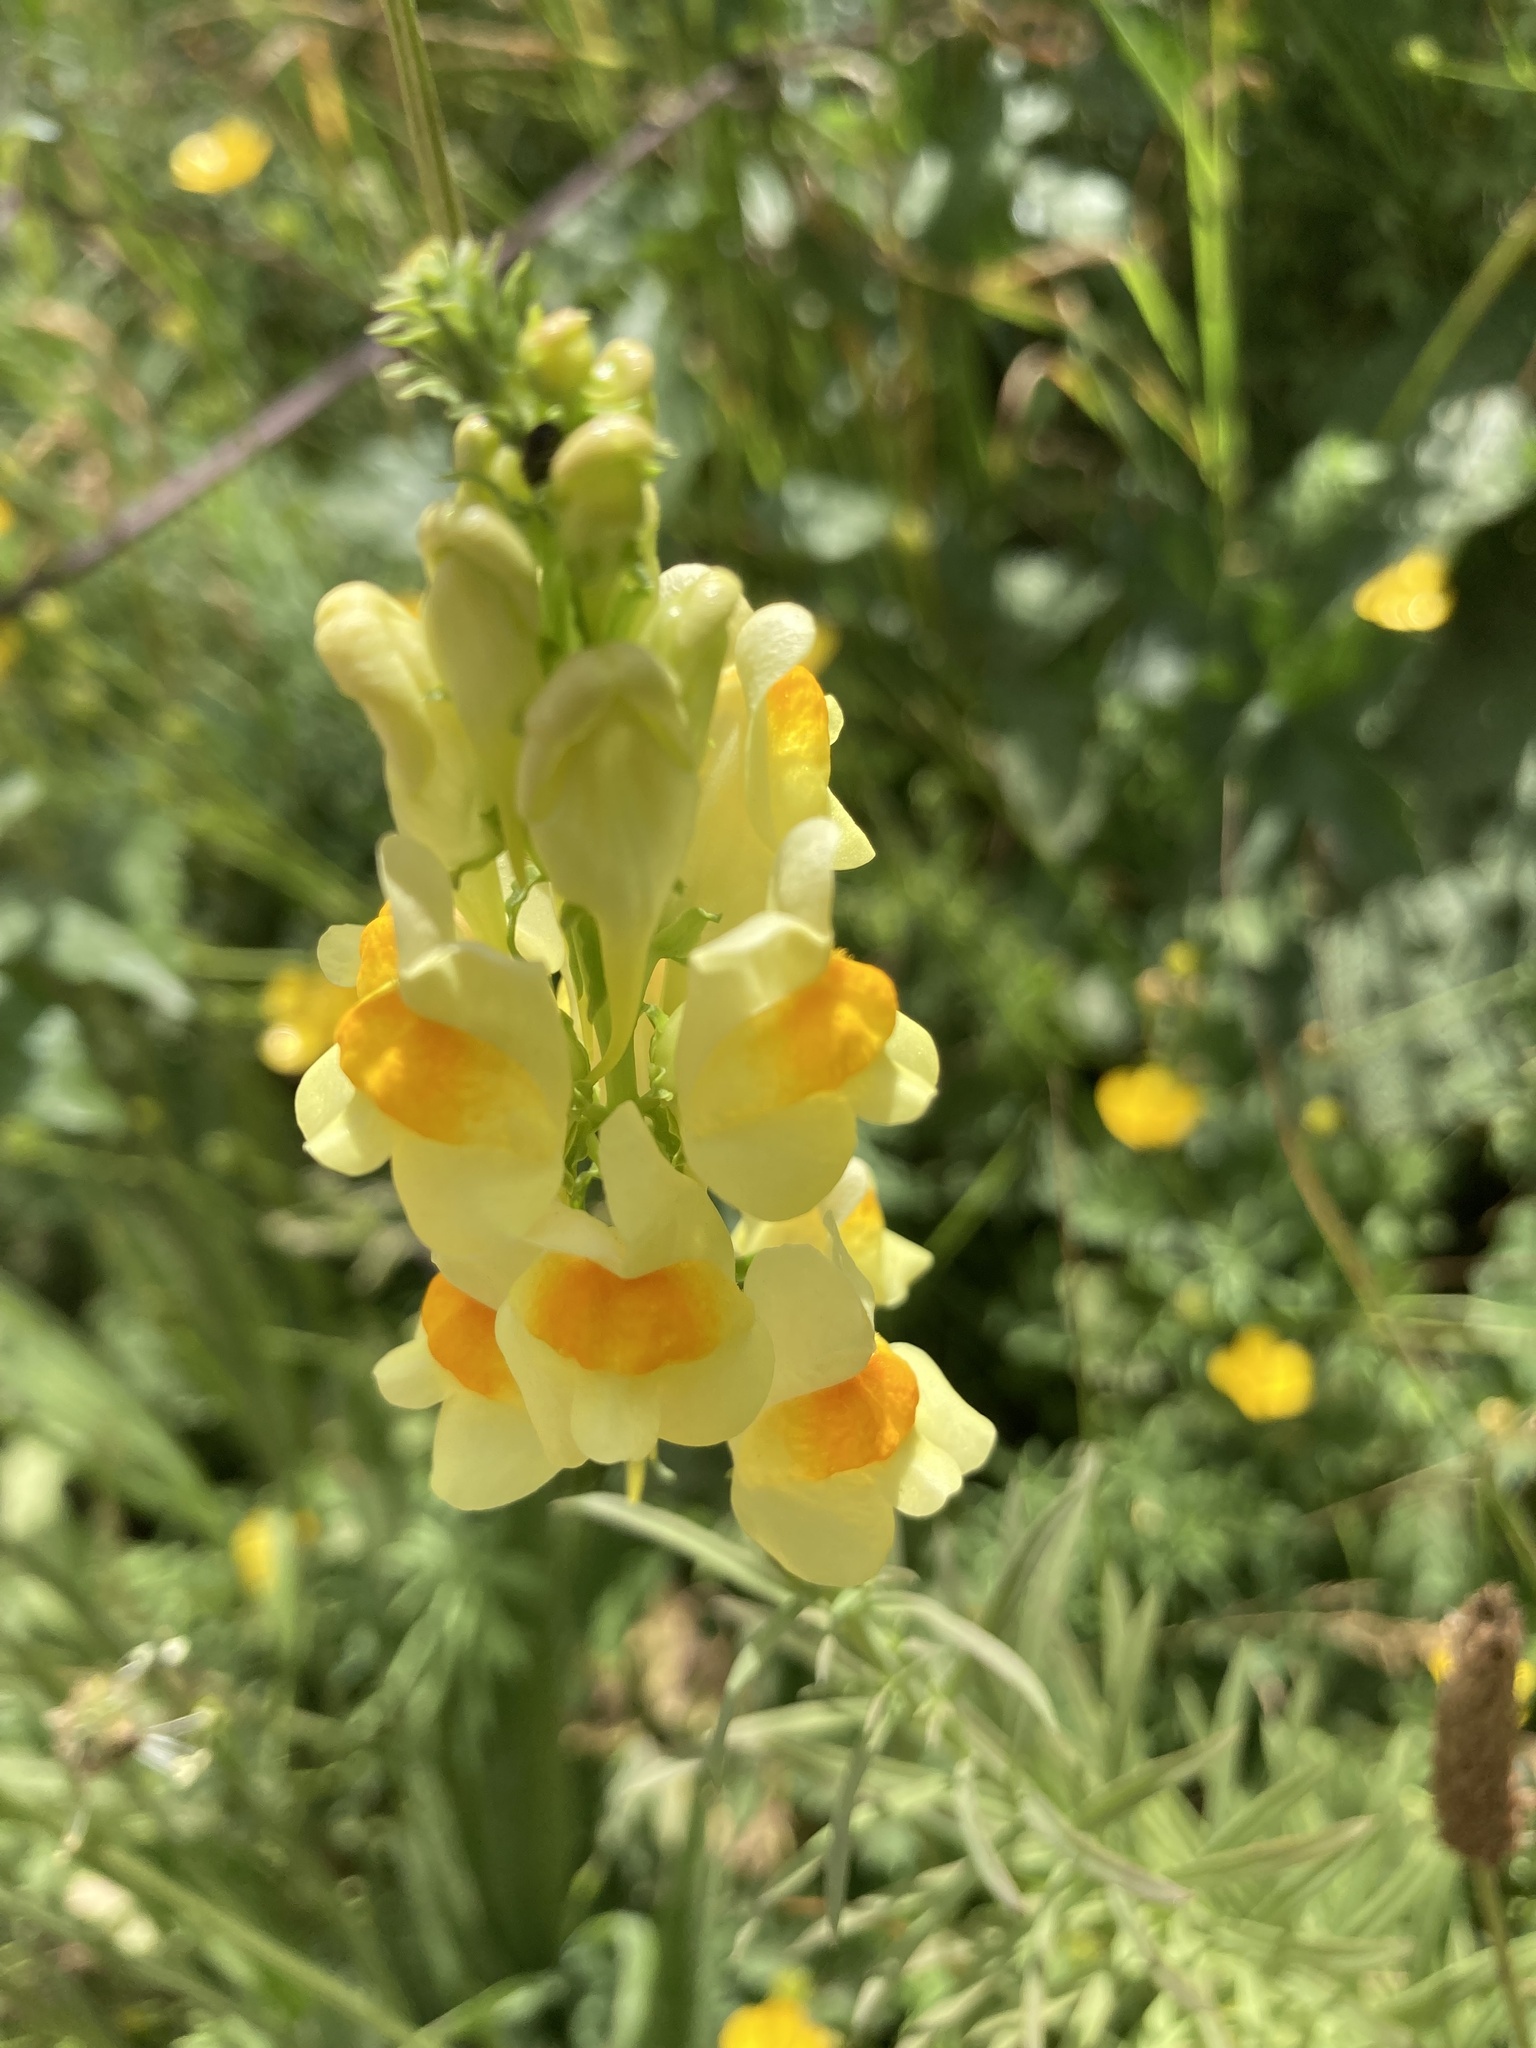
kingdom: Plantae
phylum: Tracheophyta
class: Magnoliopsida
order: Lamiales
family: Plantaginaceae
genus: Linaria
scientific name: Linaria vulgaris
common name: Butter and eggs
